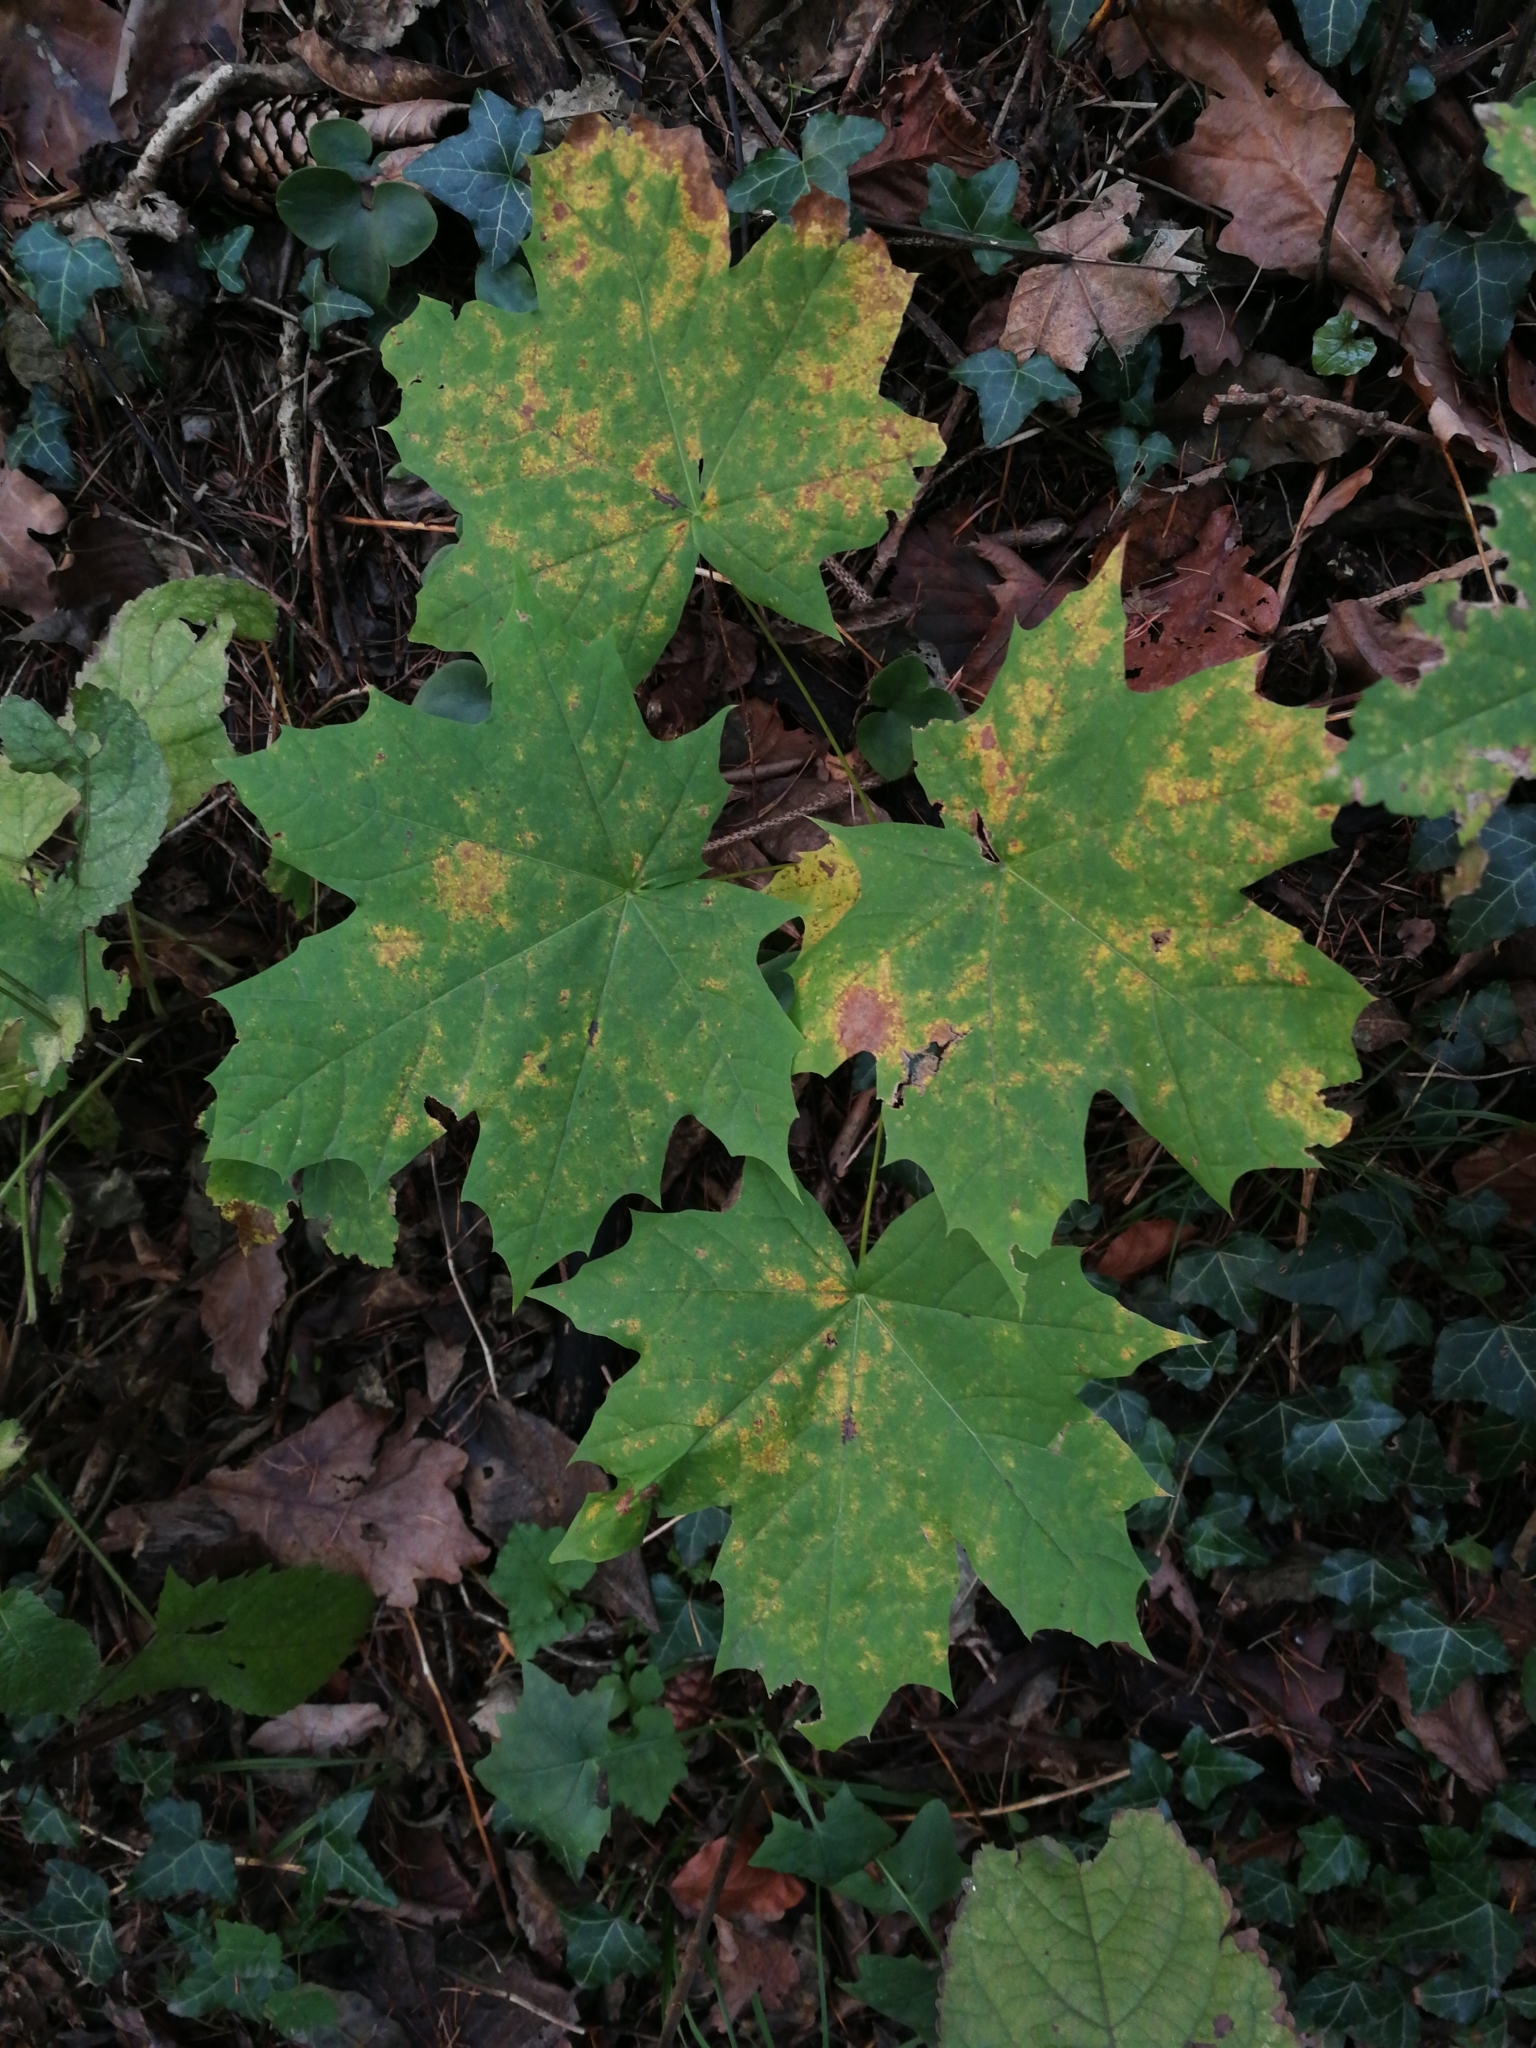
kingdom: Plantae
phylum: Tracheophyta
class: Magnoliopsida
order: Sapindales
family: Sapindaceae
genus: Acer
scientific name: Acer platanoides
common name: Norway maple
